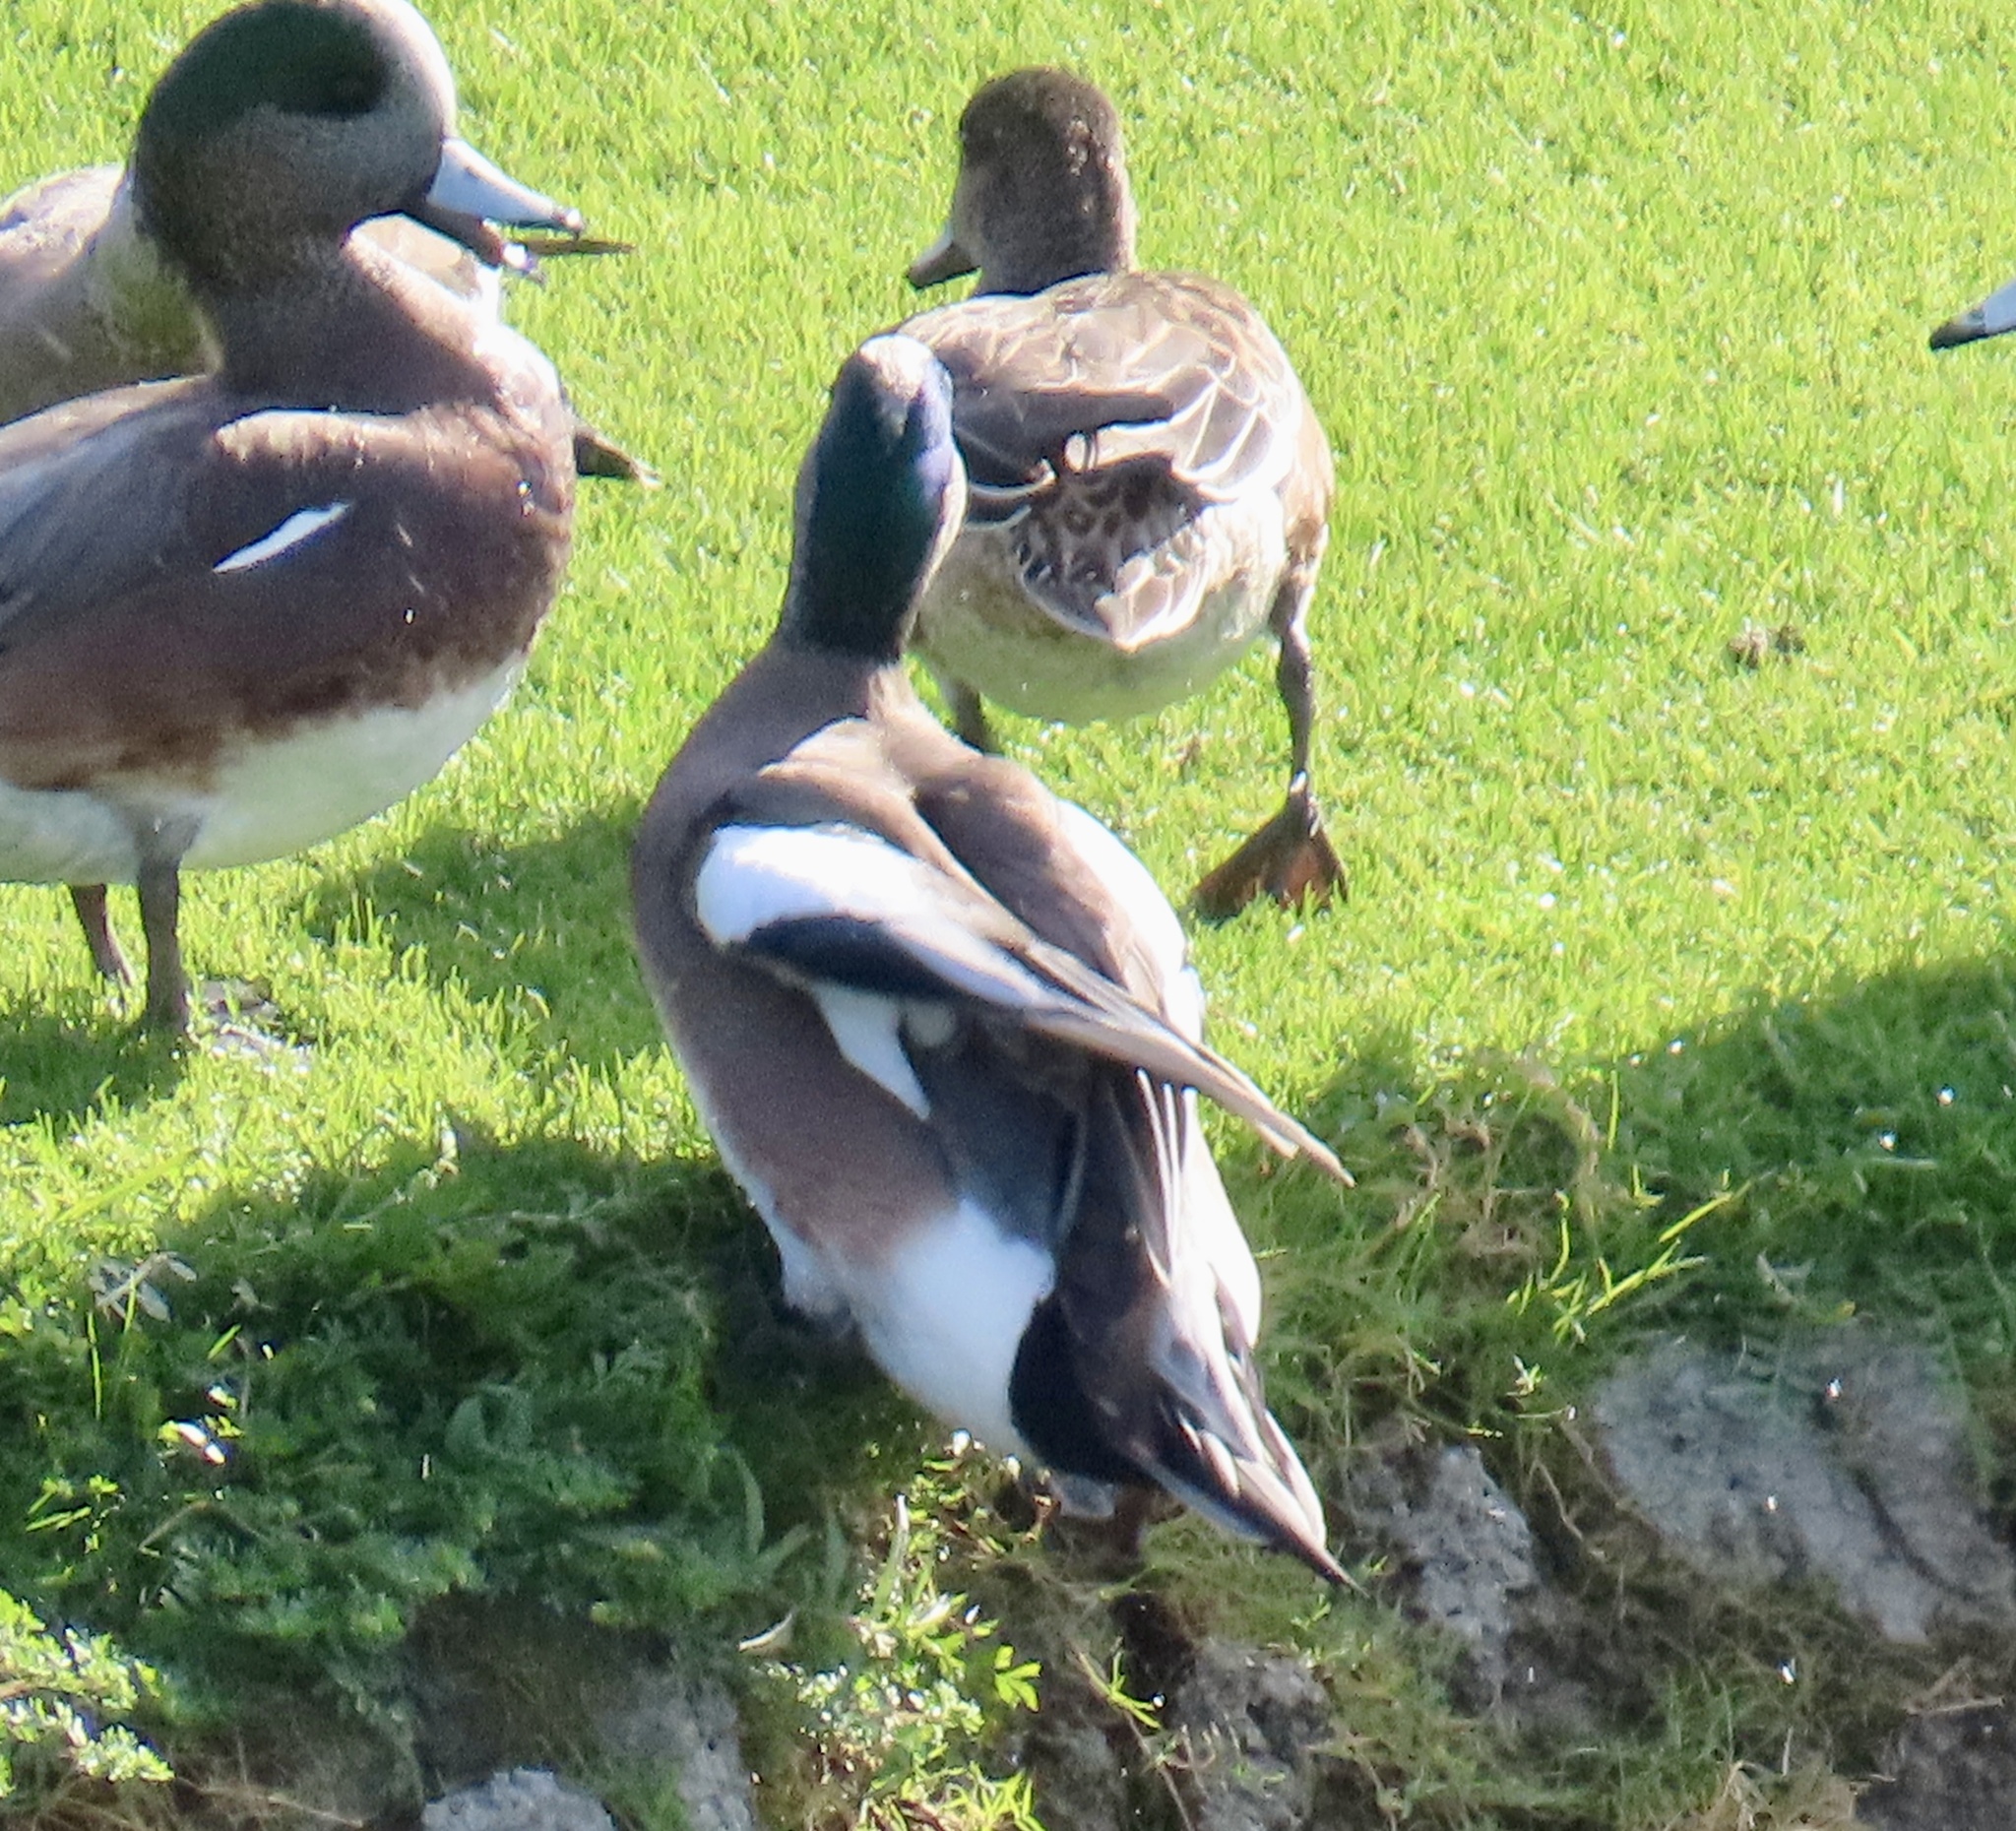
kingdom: Animalia
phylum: Chordata
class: Aves
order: Anseriformes
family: Anatidae
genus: Mareca
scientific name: Mareca americana
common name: American wigeon
